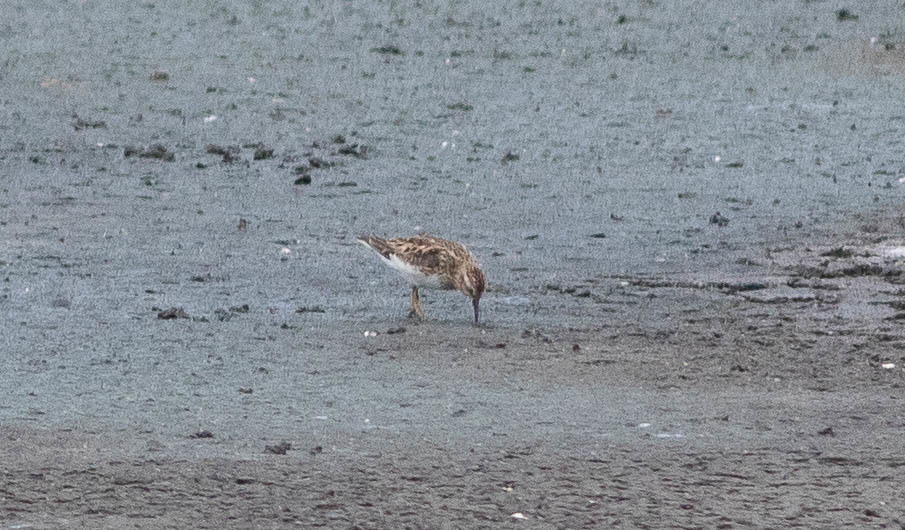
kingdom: Animalia
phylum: Chordata
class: Aves
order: Charadriiformes
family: Scolopacidae
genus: Calidris
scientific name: Calidris minutilla
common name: Least sandpiper
